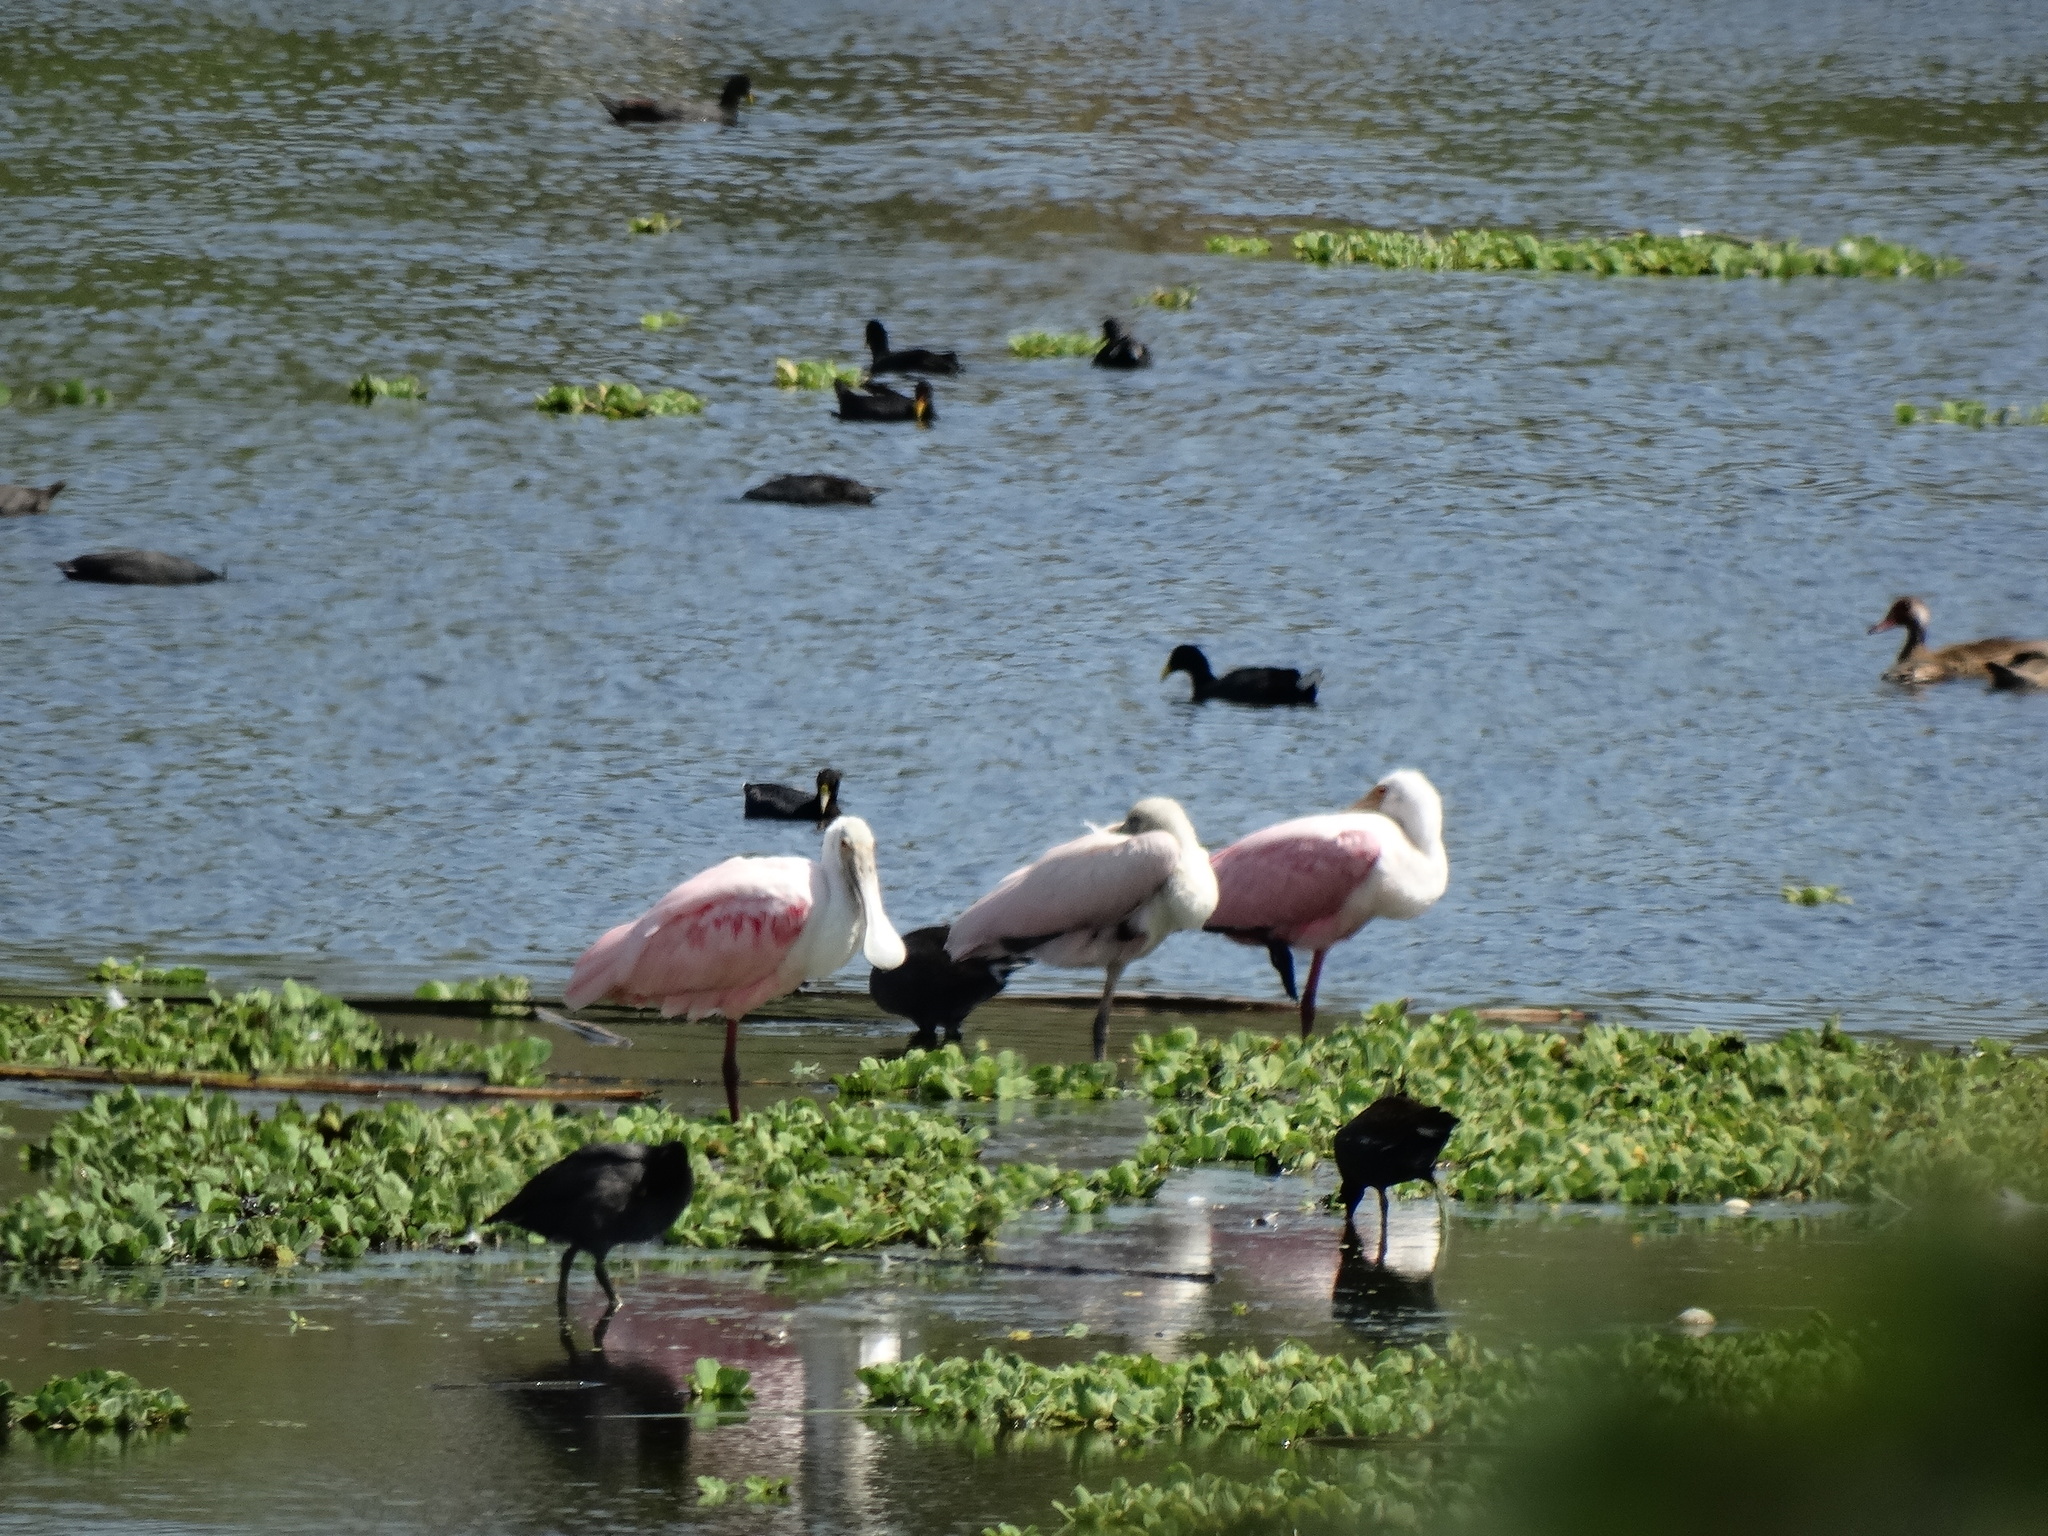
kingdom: Animalia
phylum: Chordata
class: Aves
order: Pelecaniformes
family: Threskiornithidae
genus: Platalea
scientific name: Platalea ajaja
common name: Roseate spoonbill
